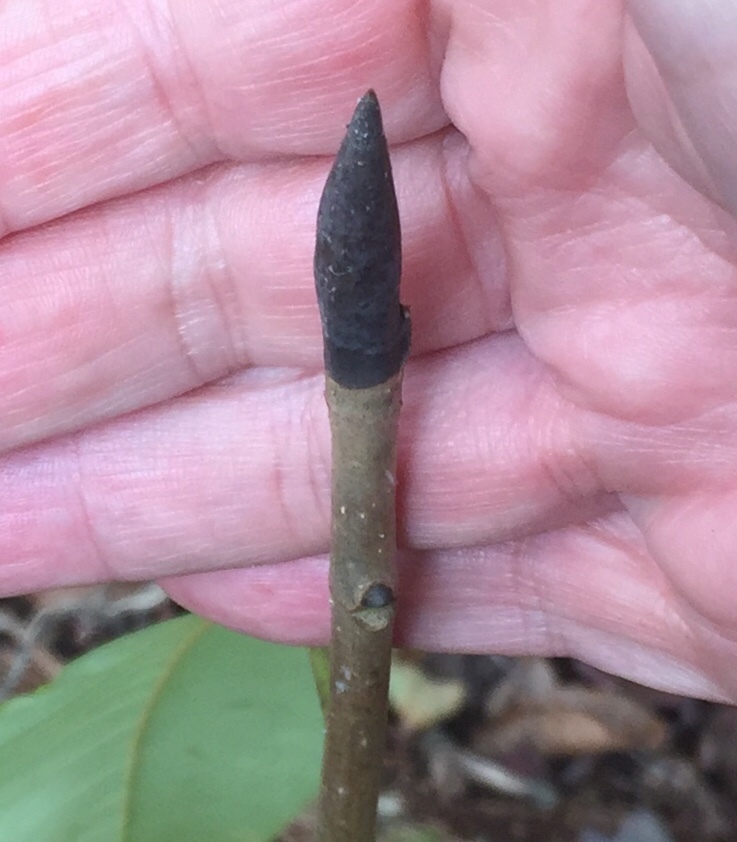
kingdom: Plantae
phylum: Tracheophyta
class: Magnoliopsida
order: Magnoliales
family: Magnoliaceae
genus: Magnolia
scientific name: Magnolia tripetala
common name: Umbrella magnolia
